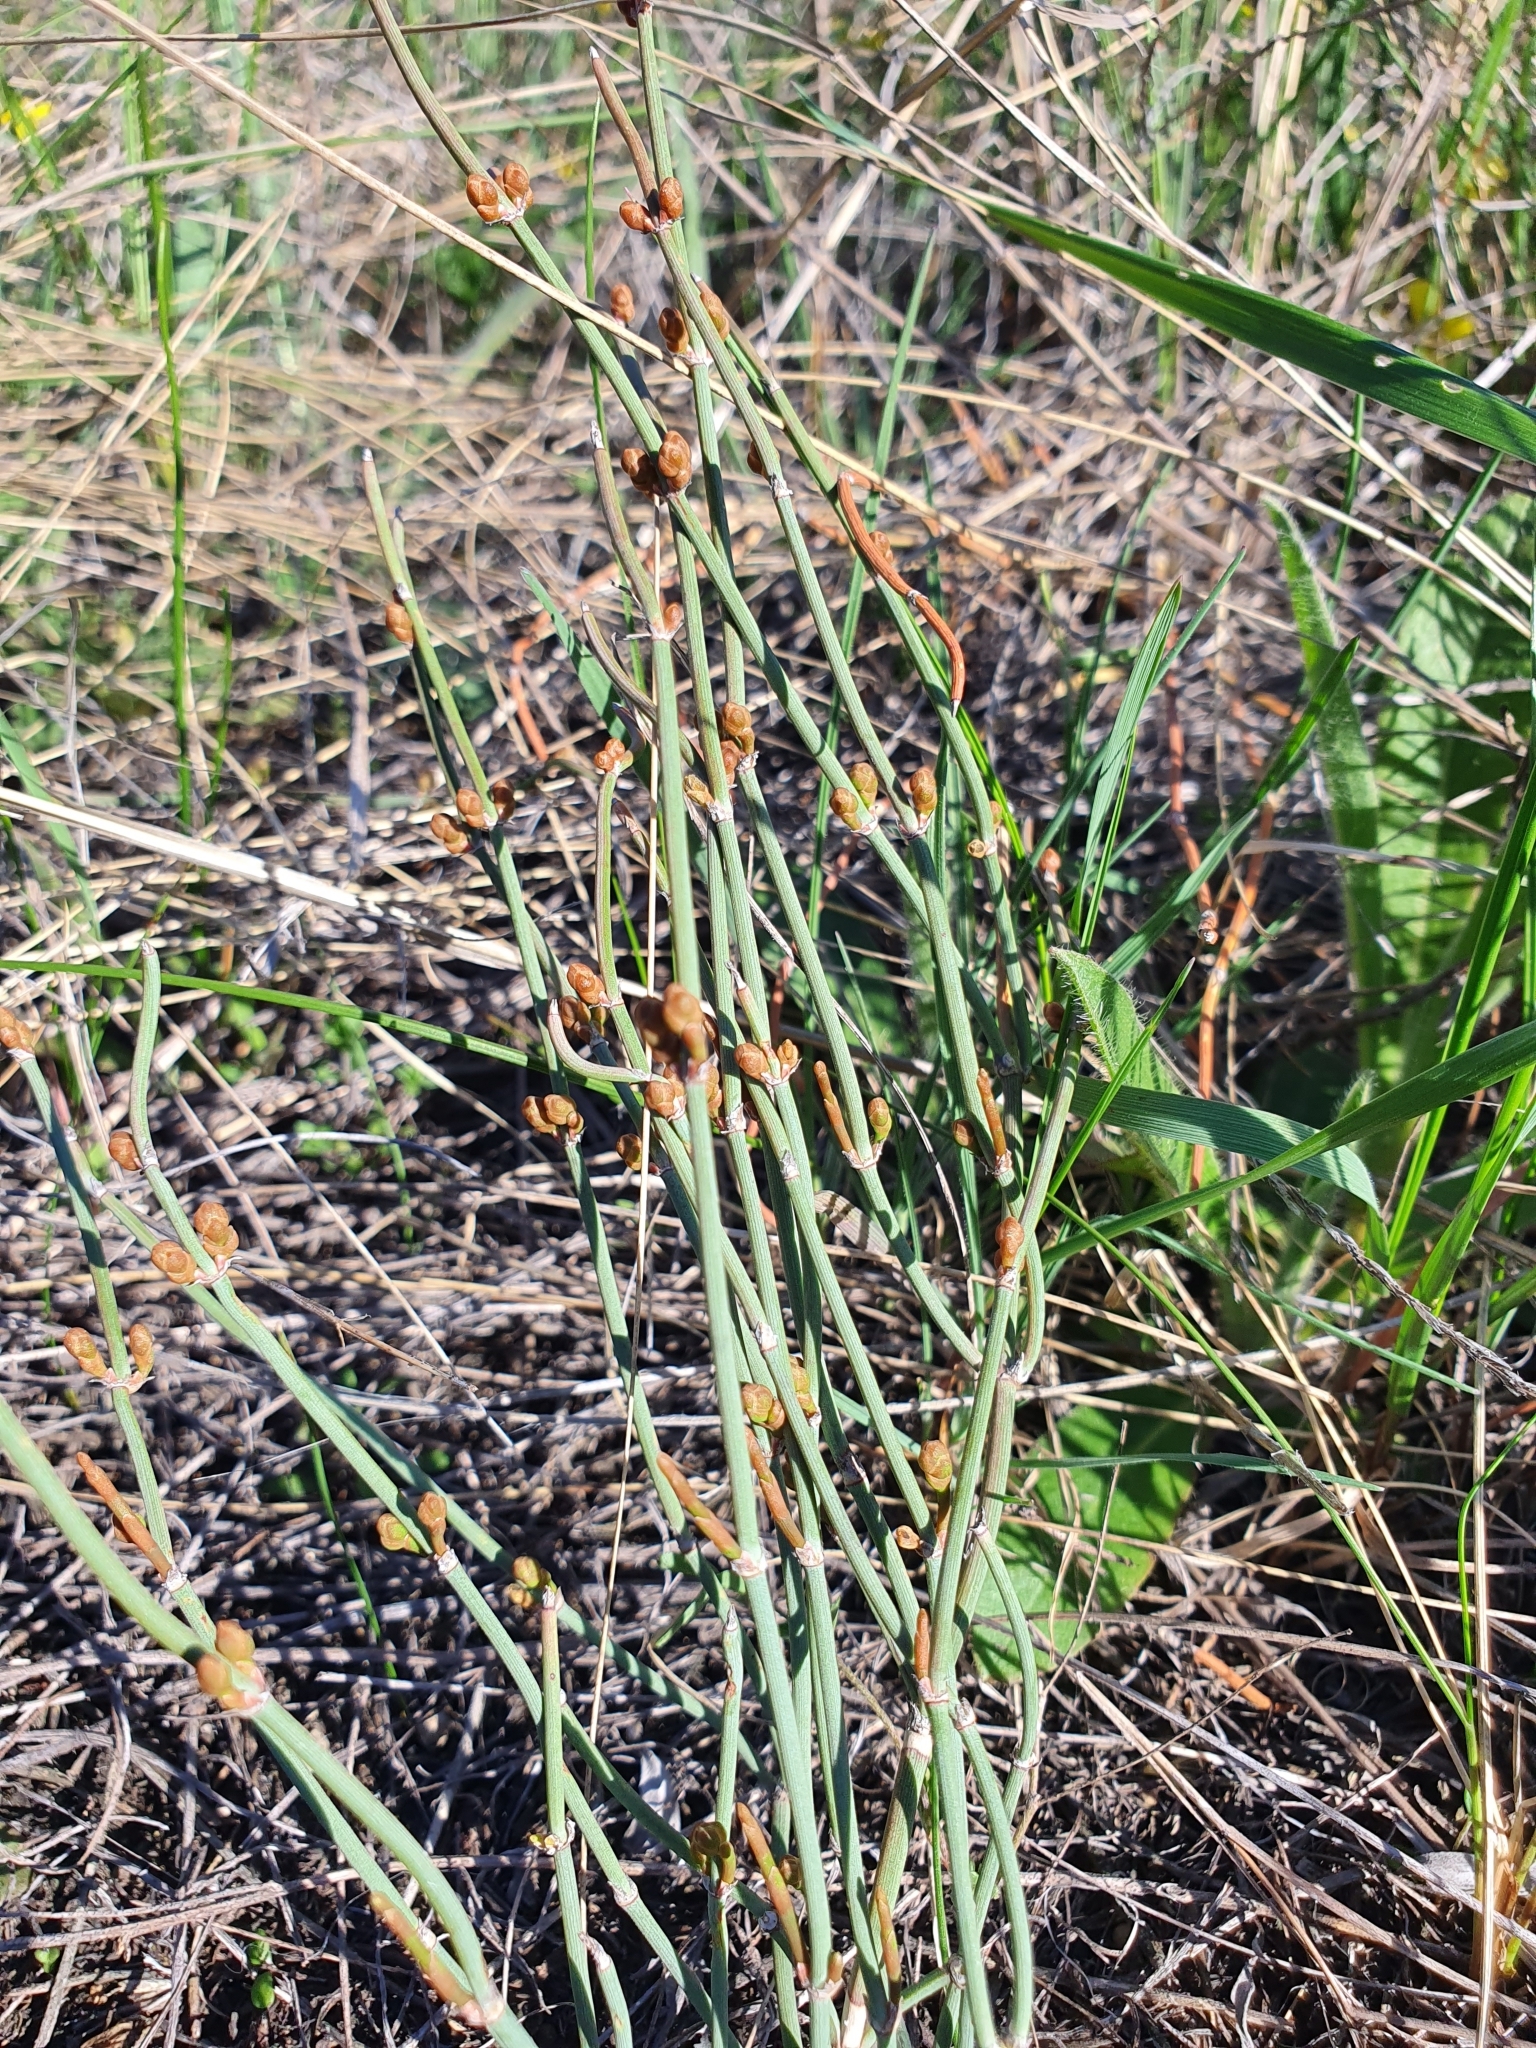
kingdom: Plantae
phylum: Tracheophyta
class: Gnetopsida
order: Ephedrales
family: Ephedraceae
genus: Ephedra
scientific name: Ephedra distachya
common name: Sea grape
